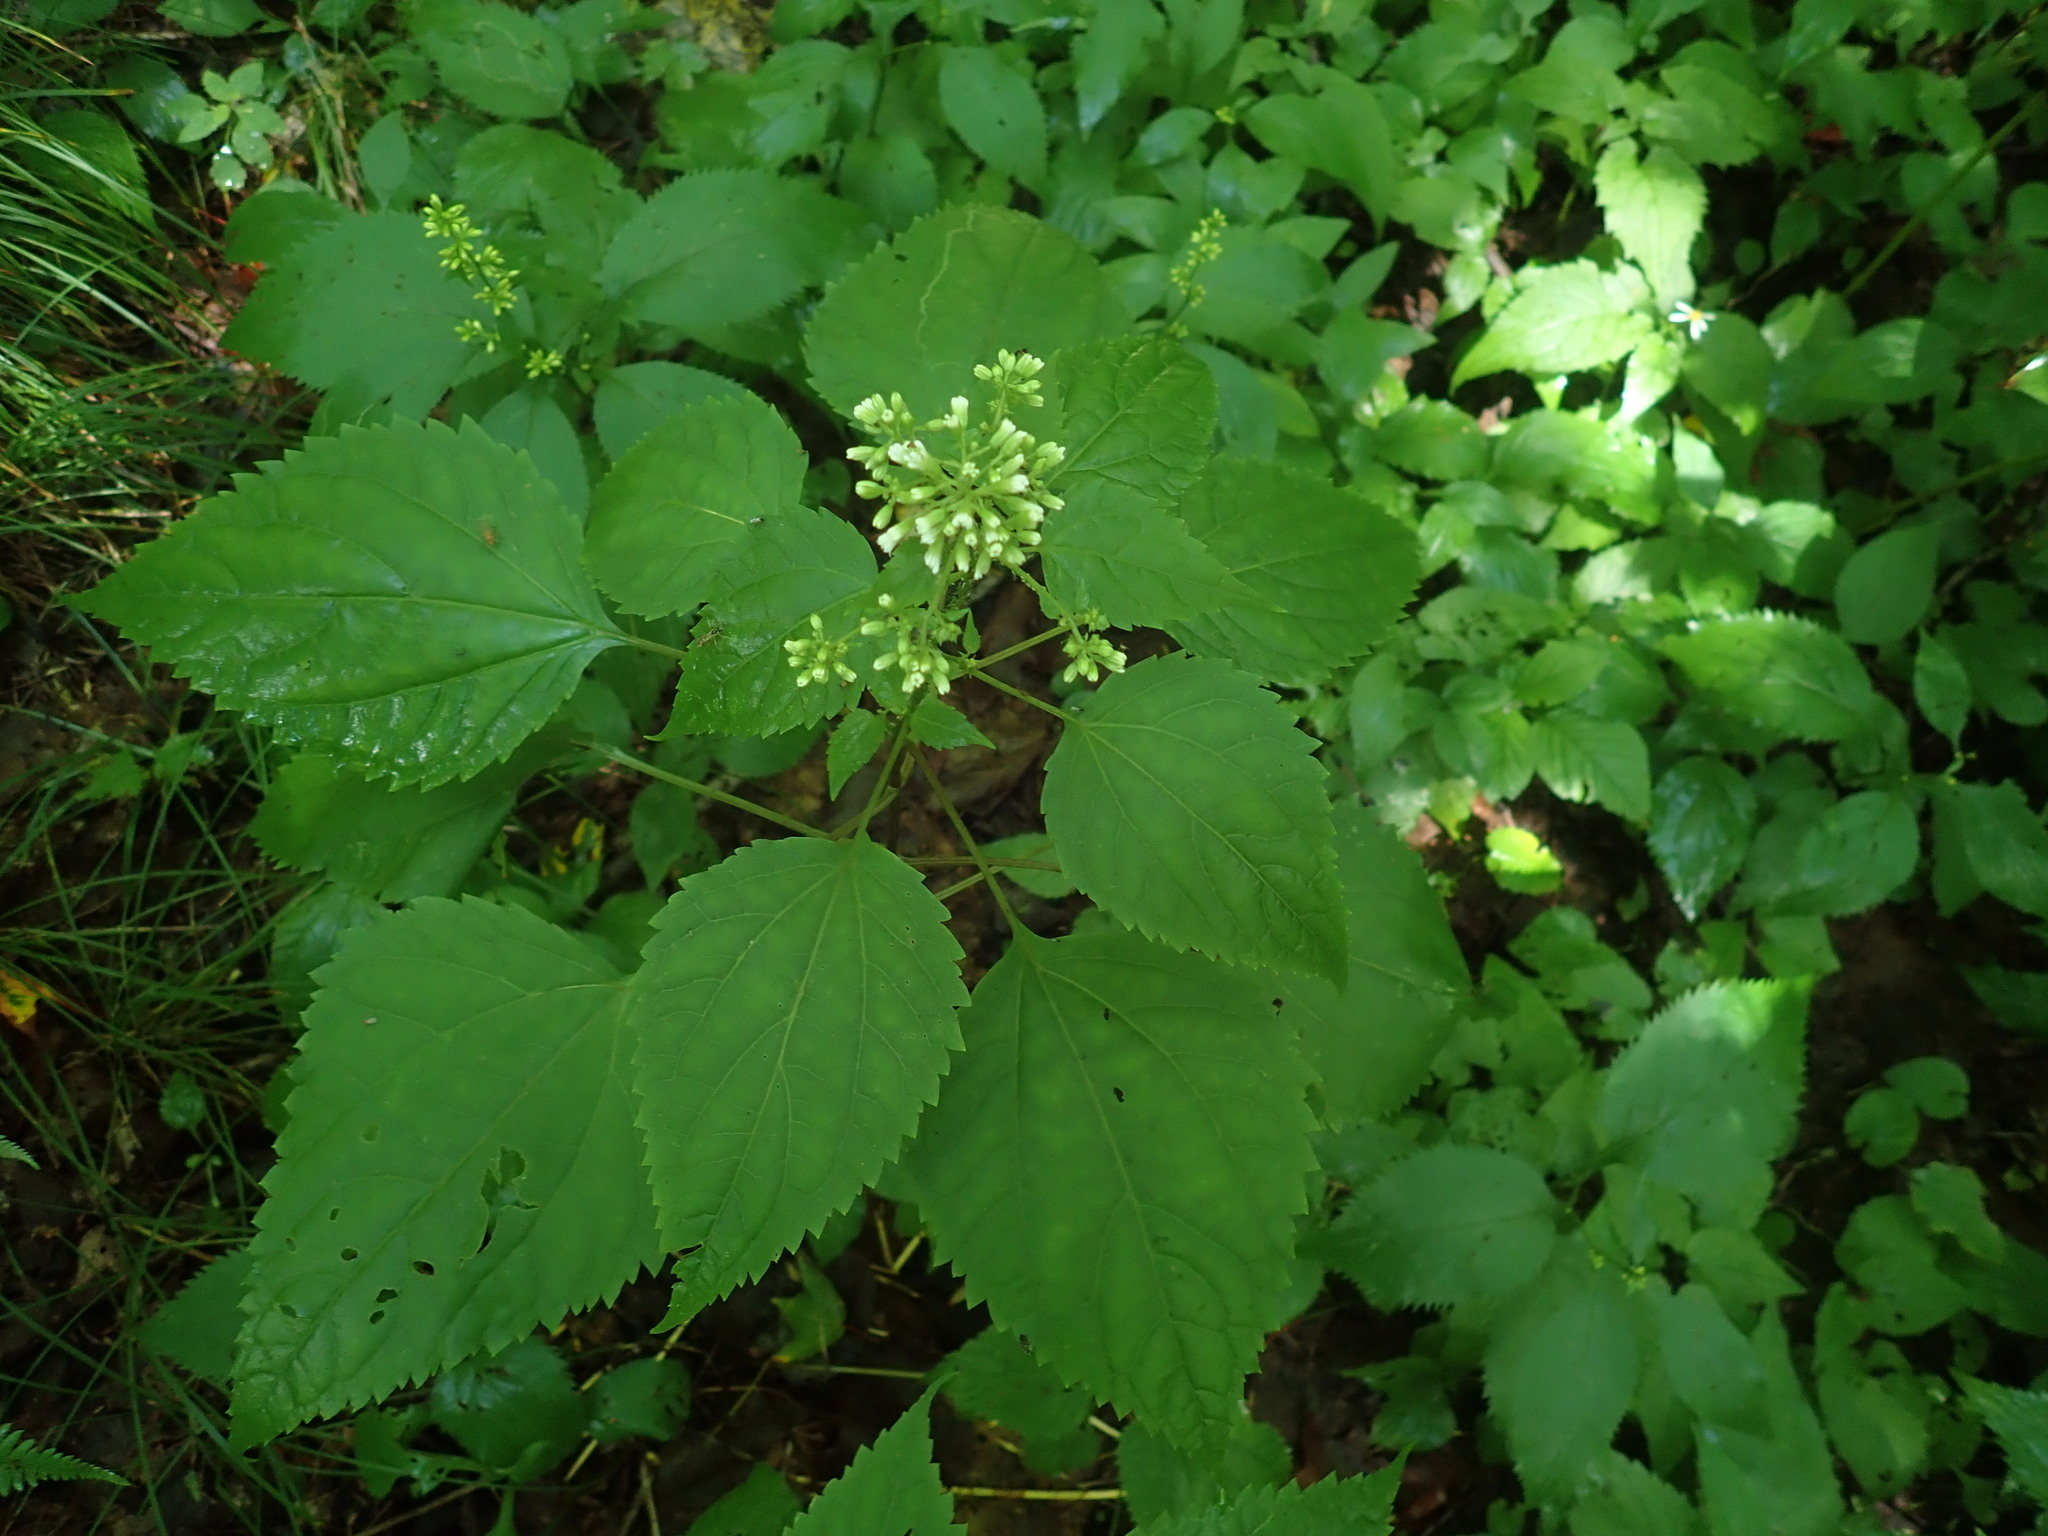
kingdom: Plantae
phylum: Tracheophyta
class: Magnoliopsida
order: Asterales
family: Asteraceae
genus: Ageratina
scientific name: Ageratina altissima
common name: White snakeroot
